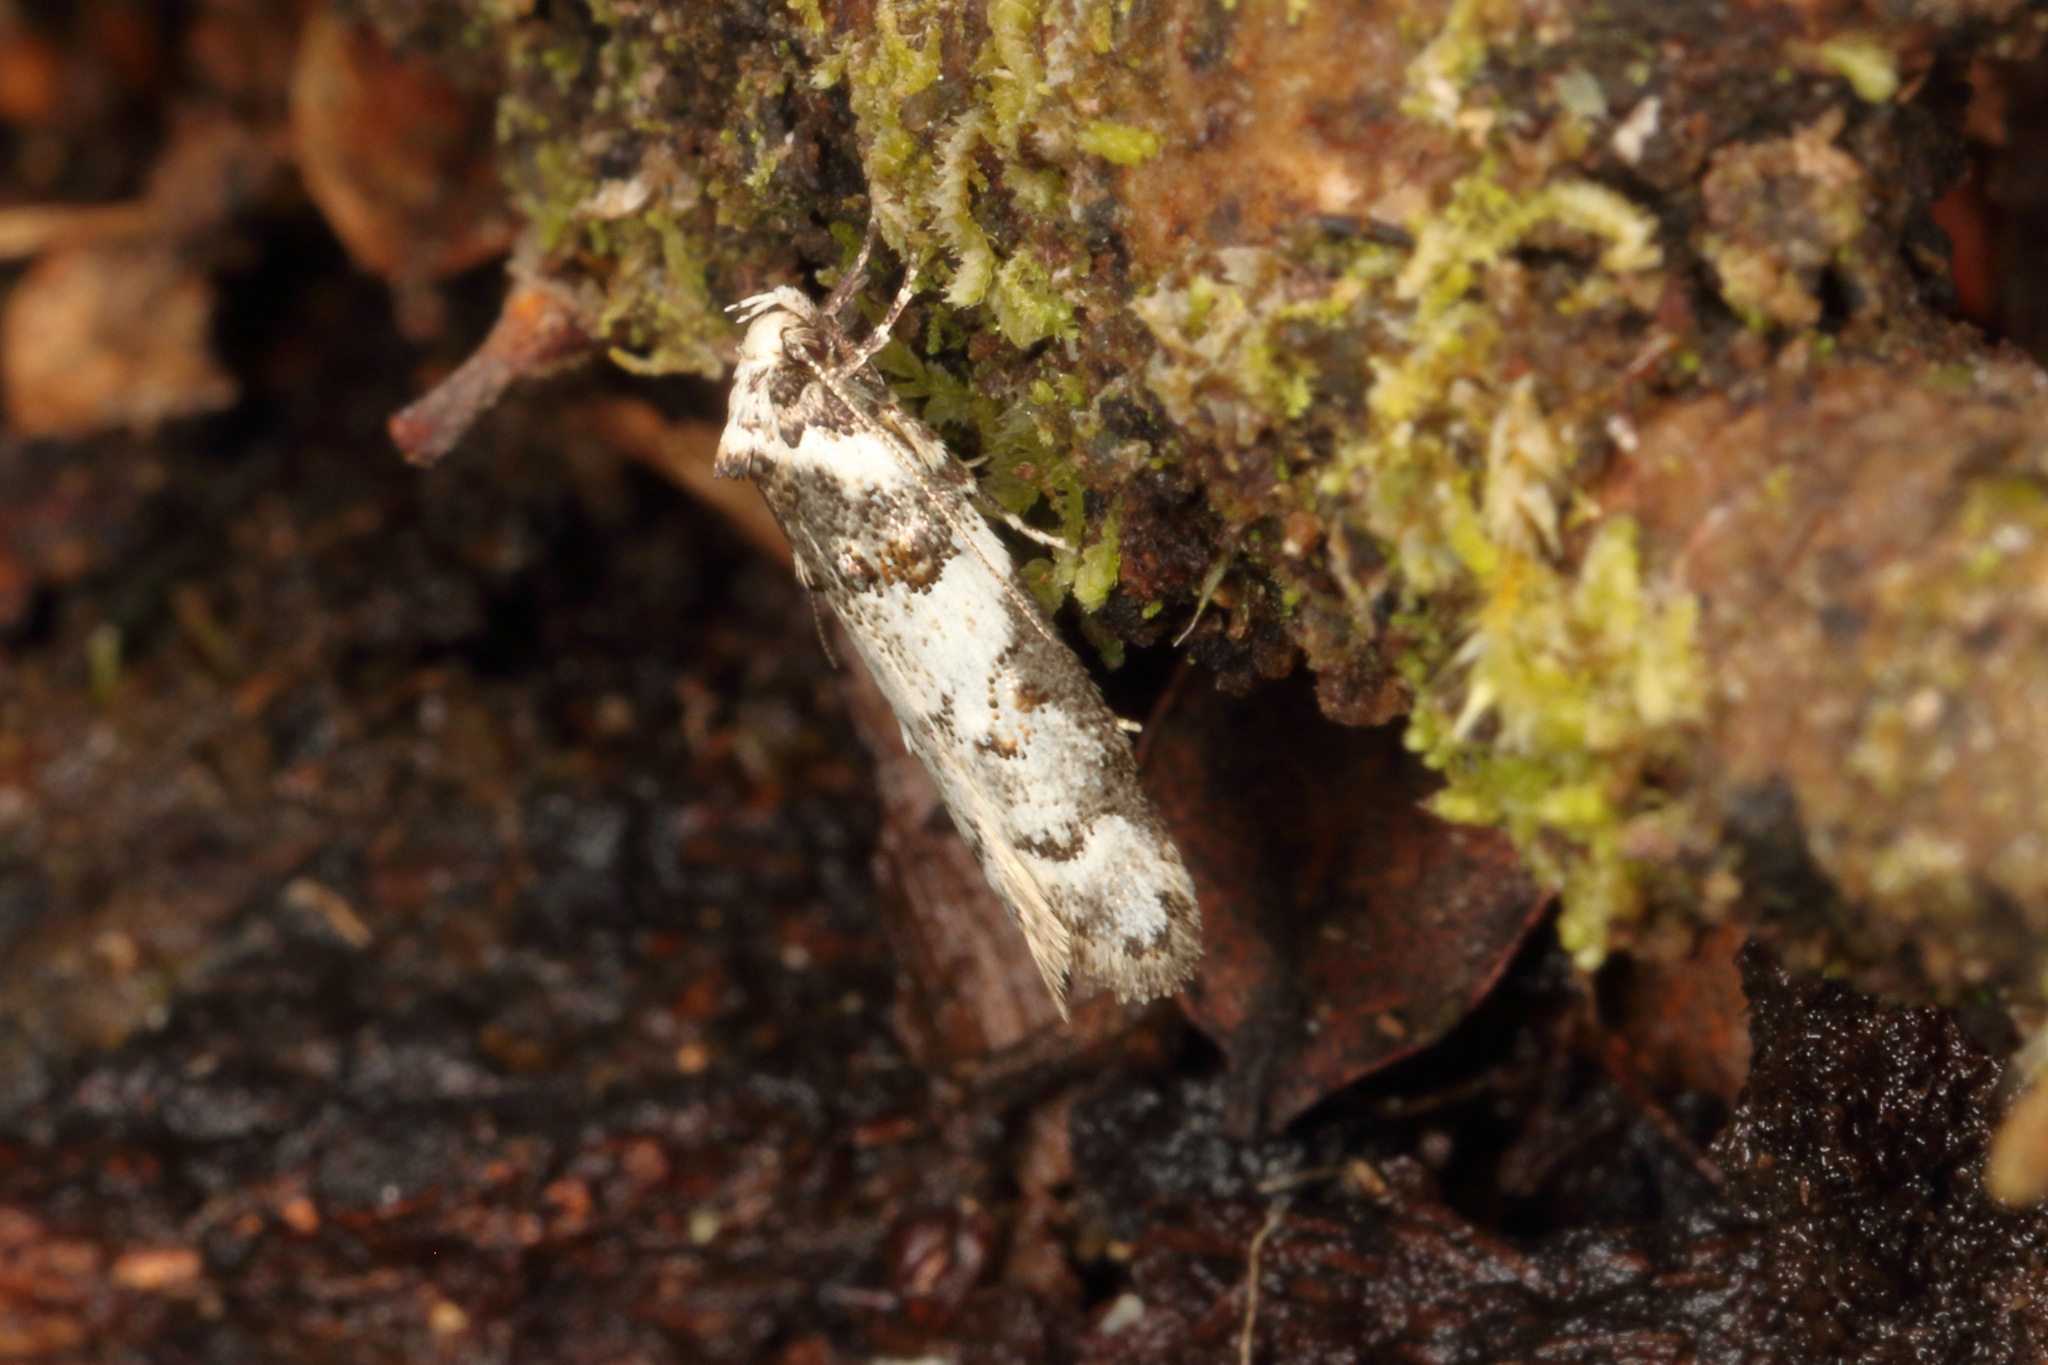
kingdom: Animalia
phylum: Arthropoda
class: Insecta
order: Lepidoptera
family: Oecophoridae
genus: Trachypepla
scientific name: Trachypepla contritella
